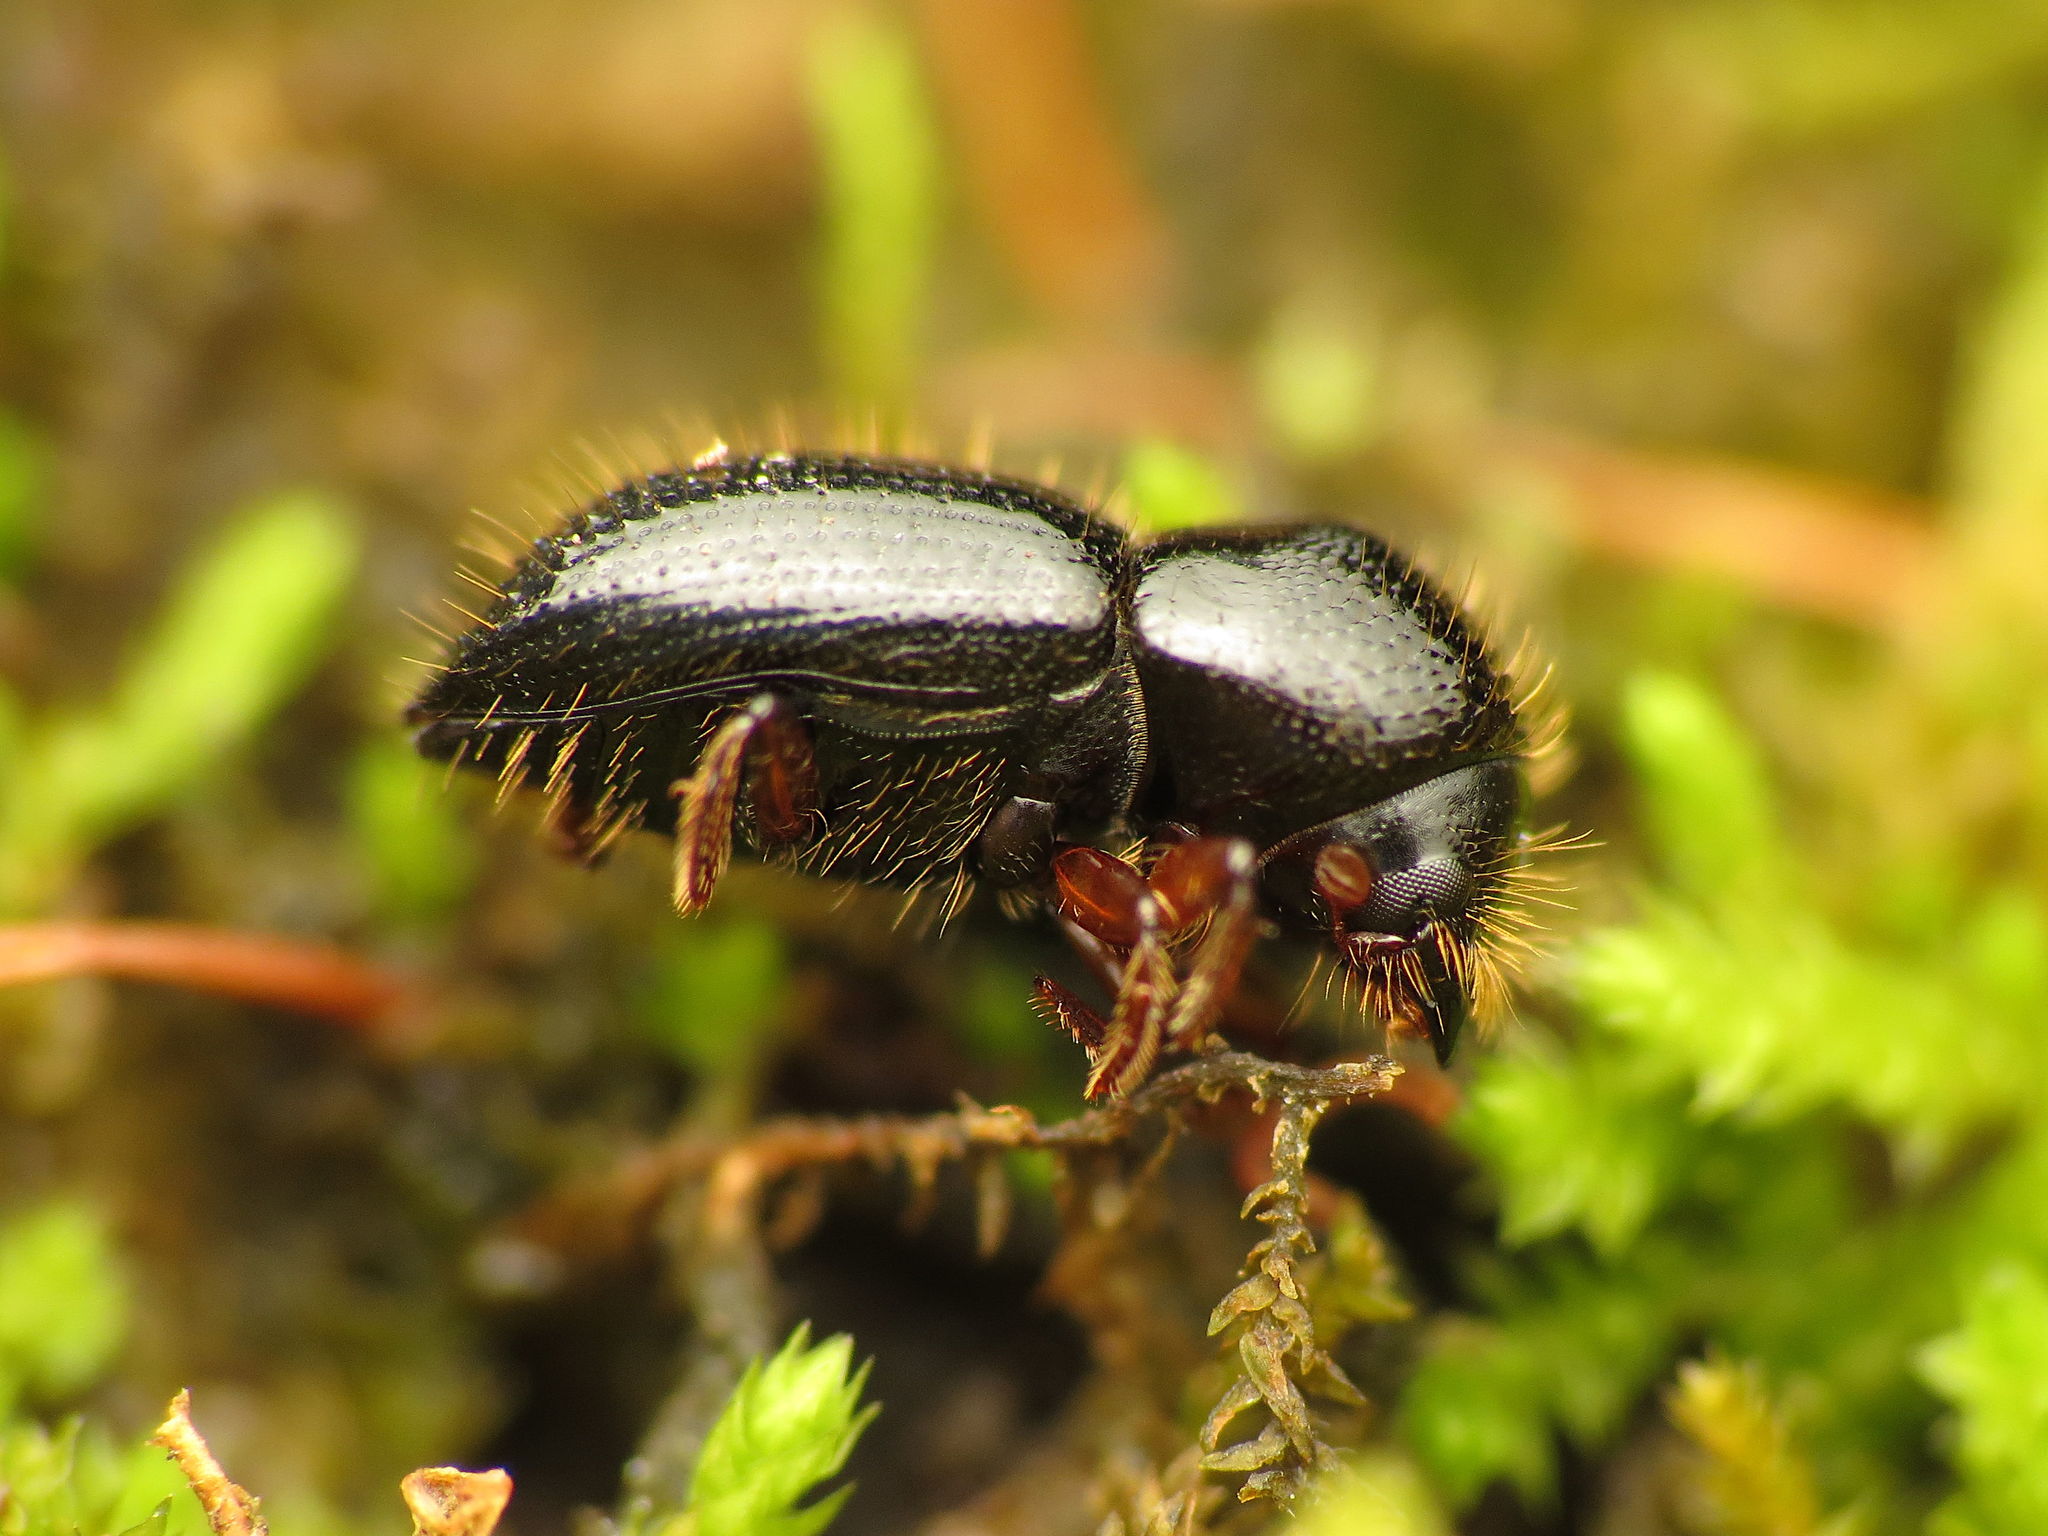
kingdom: Animalia
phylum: Arthropoda
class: Insecta
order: Coleoptera
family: Curculionidae
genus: Euwallacea
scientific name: Euwallacea validus
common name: Bark beetle
